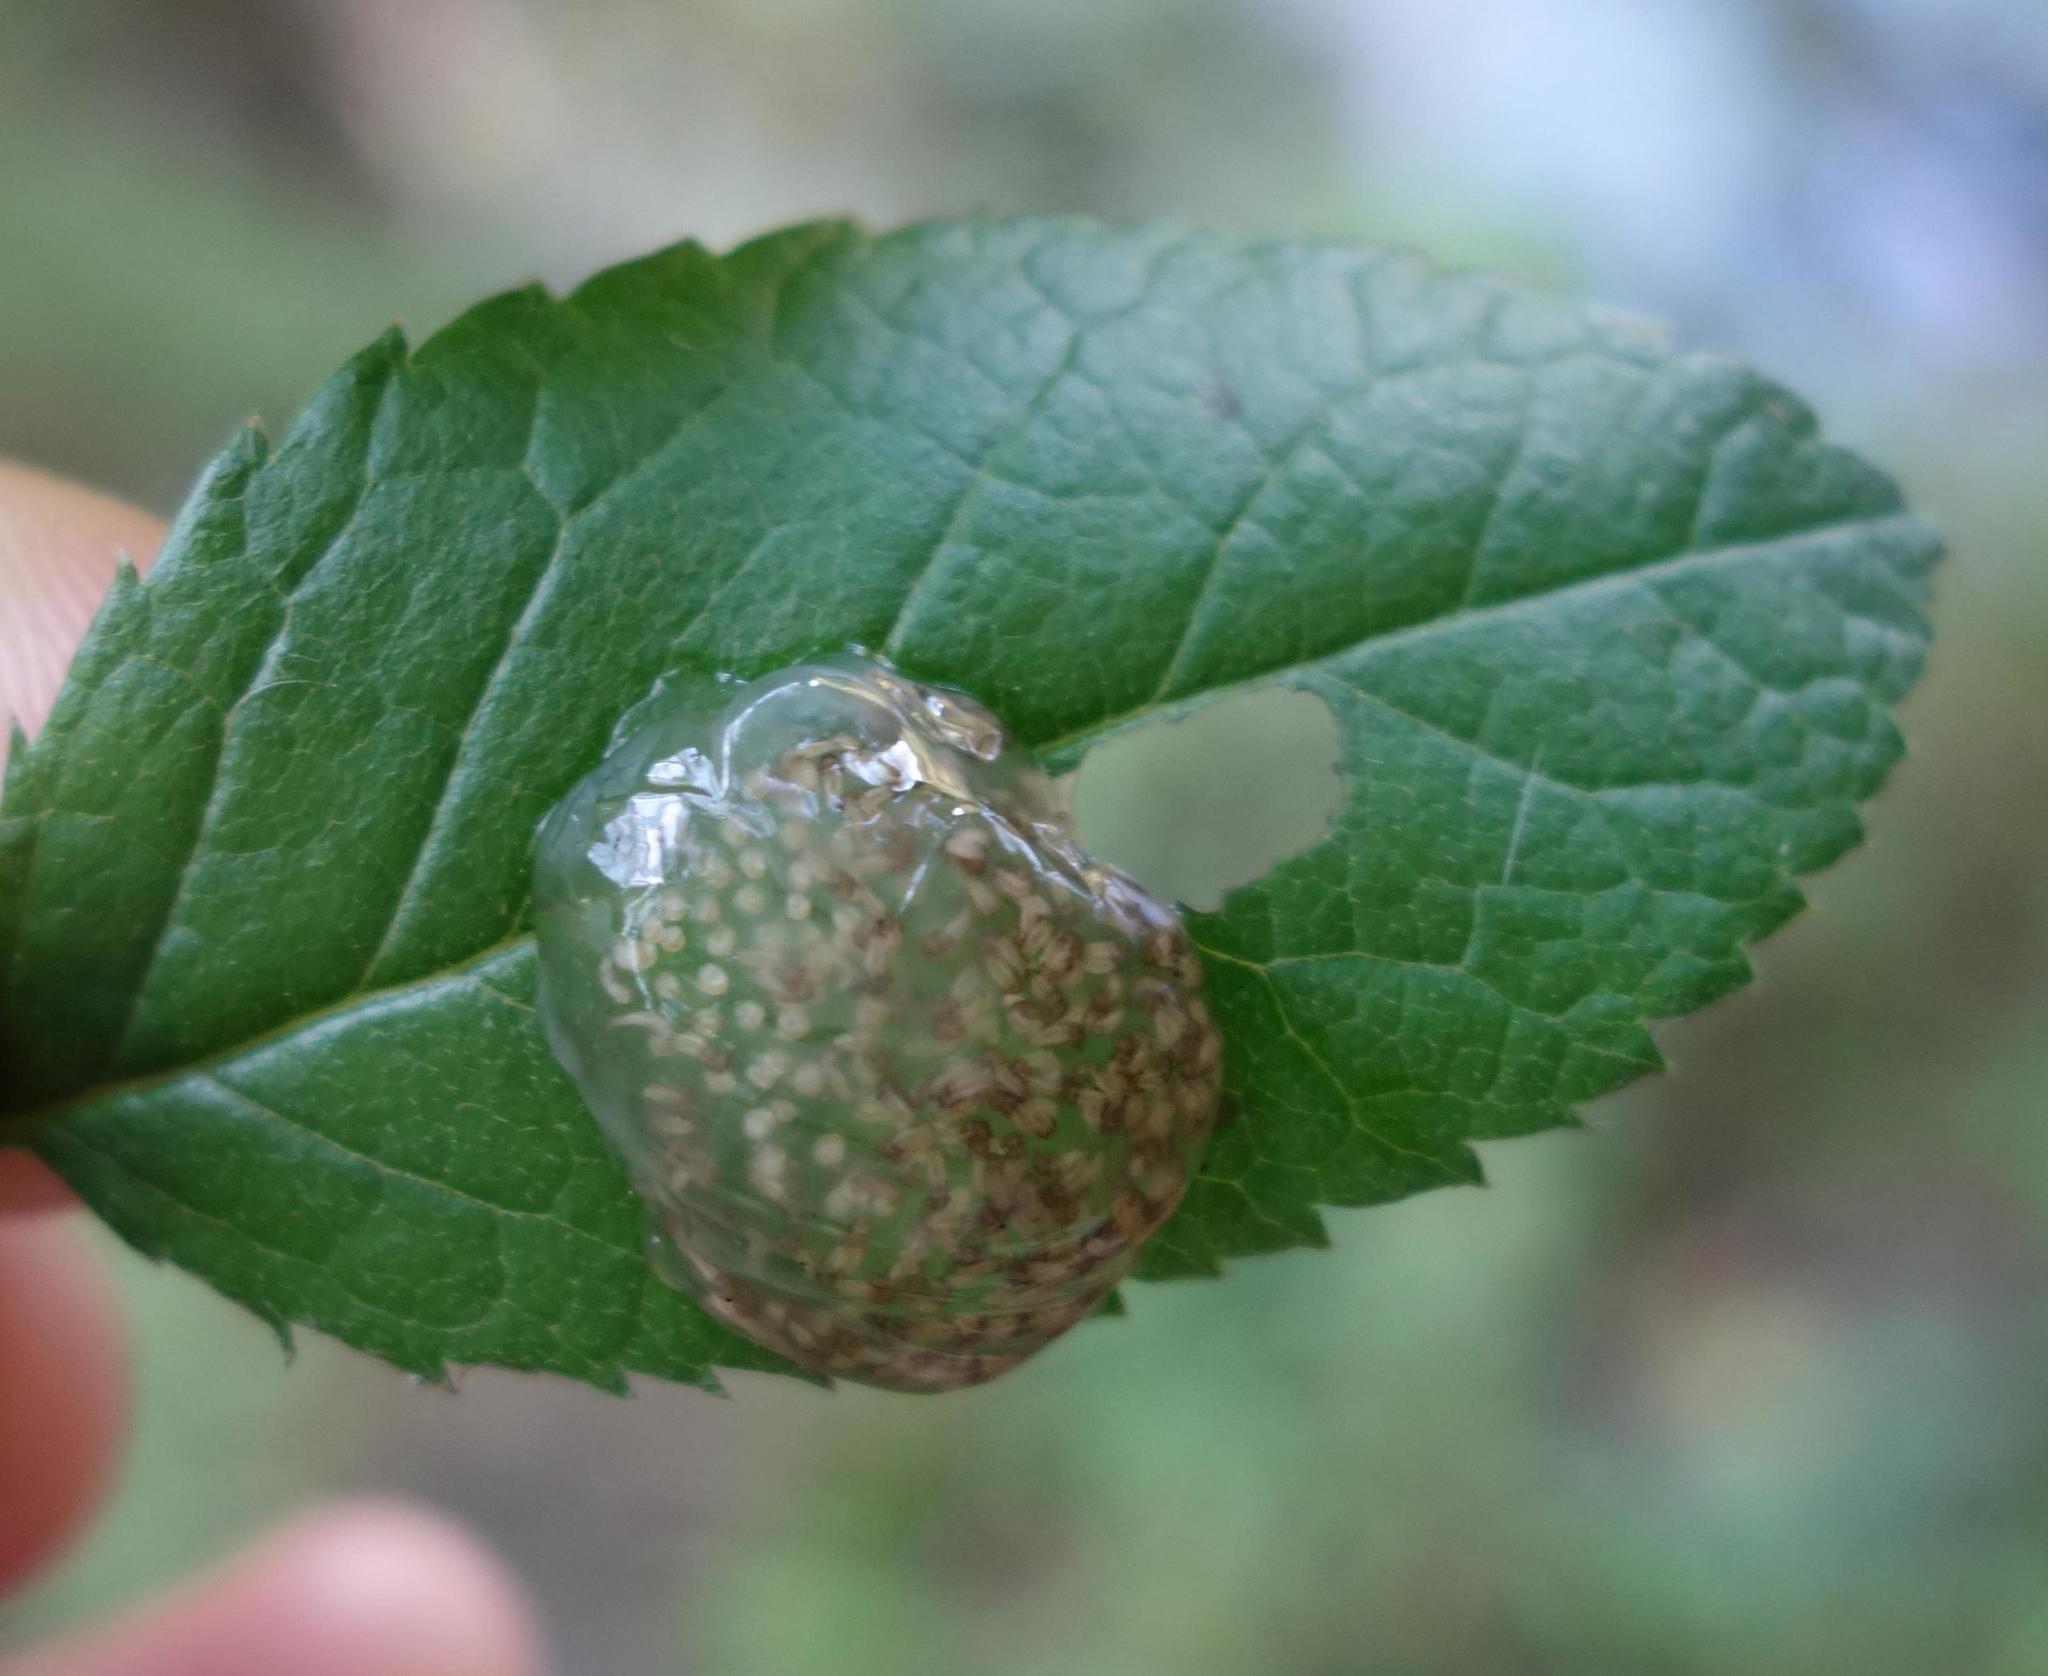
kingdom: Animalia
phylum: Arthropoda
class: Insecta
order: Trichoptera
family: Limnephilidae
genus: Glyphotaelius
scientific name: Glyphotaelius pellucidus
